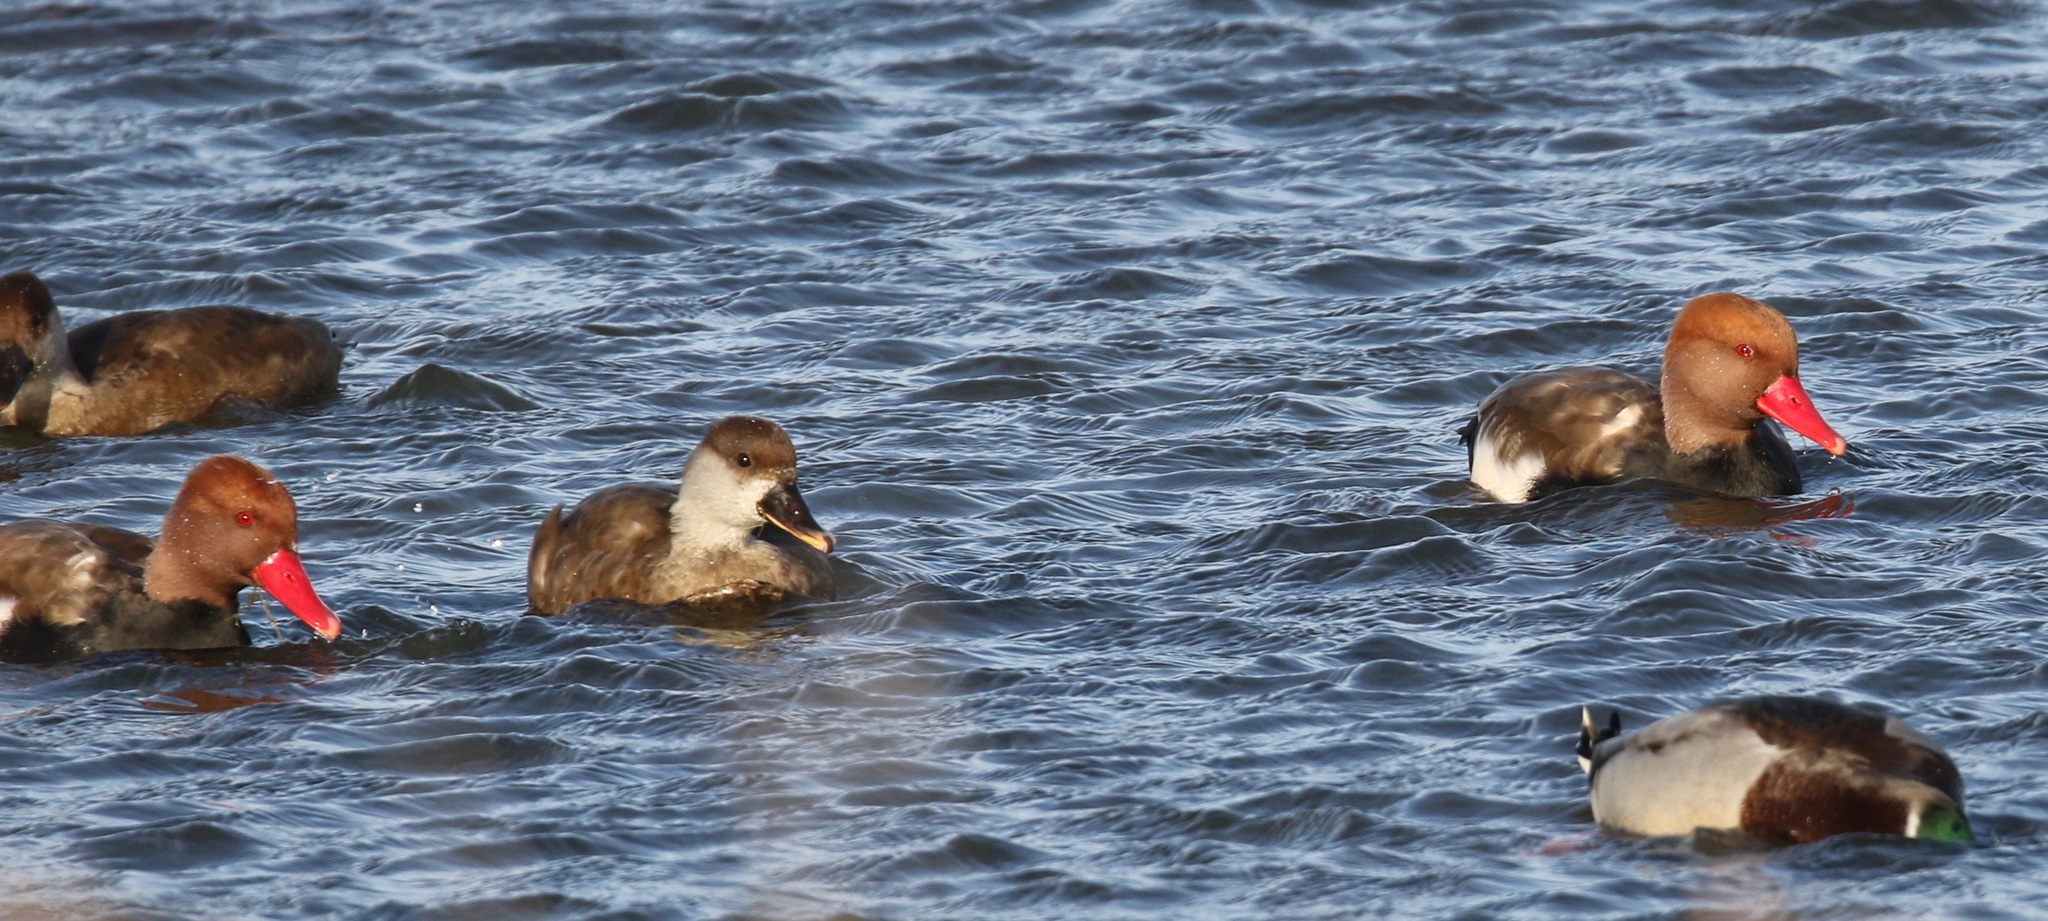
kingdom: Animalia
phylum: Chordata
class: Aves
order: Anseriformes
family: Anatidae
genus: Netta
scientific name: Netta rufina
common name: Red-crested pochard
